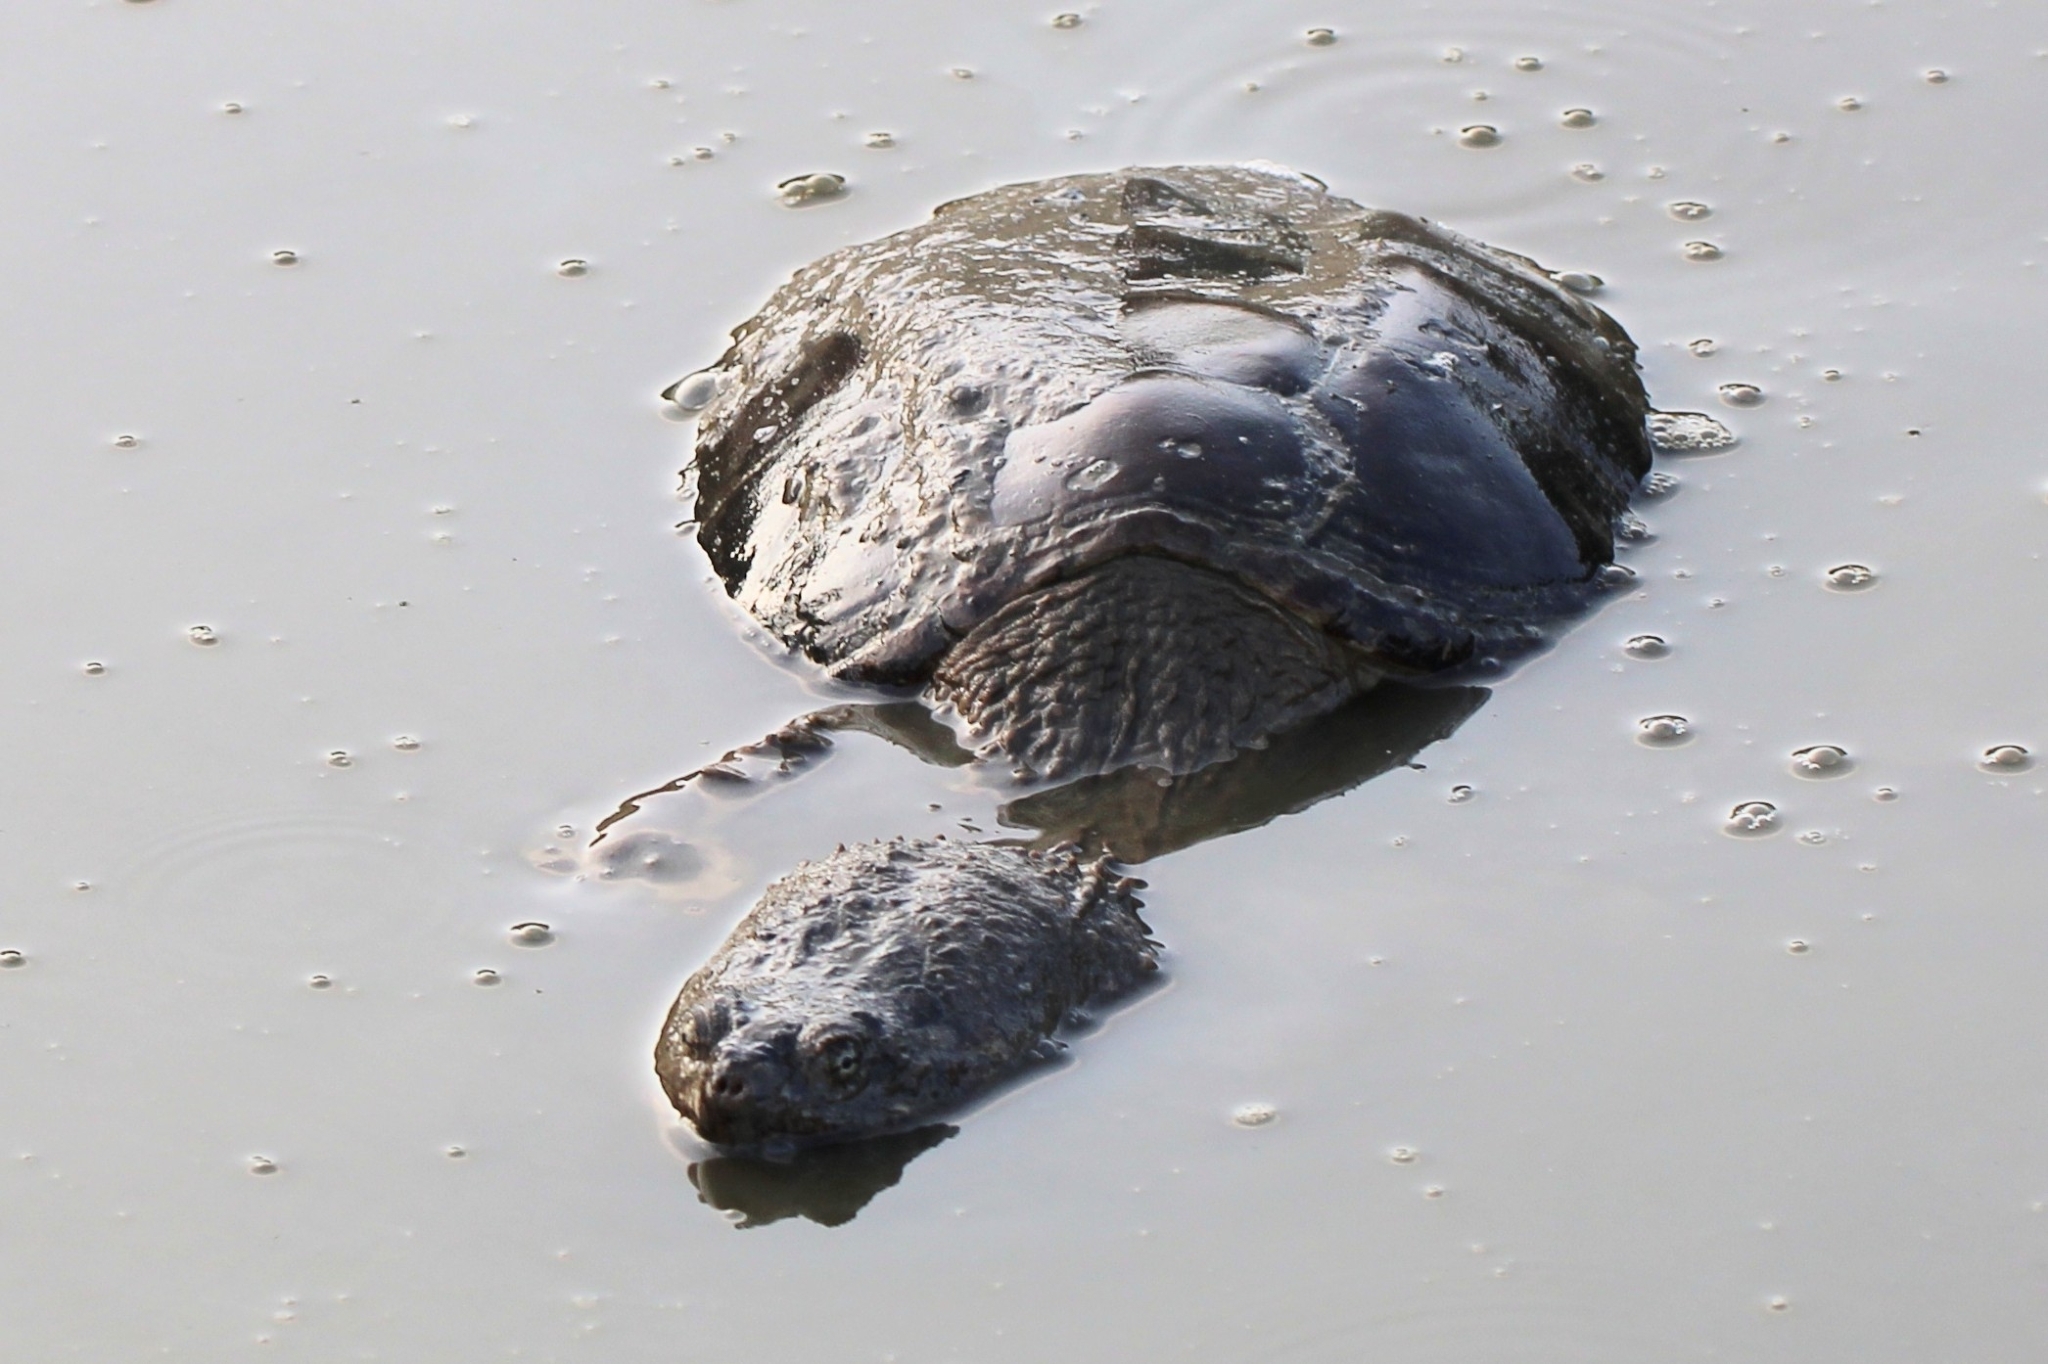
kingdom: Animalia
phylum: Chordata
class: Testudines
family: Chelydridae
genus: Chelydra
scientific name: Chelydra serpentina
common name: Common snapping turtle
